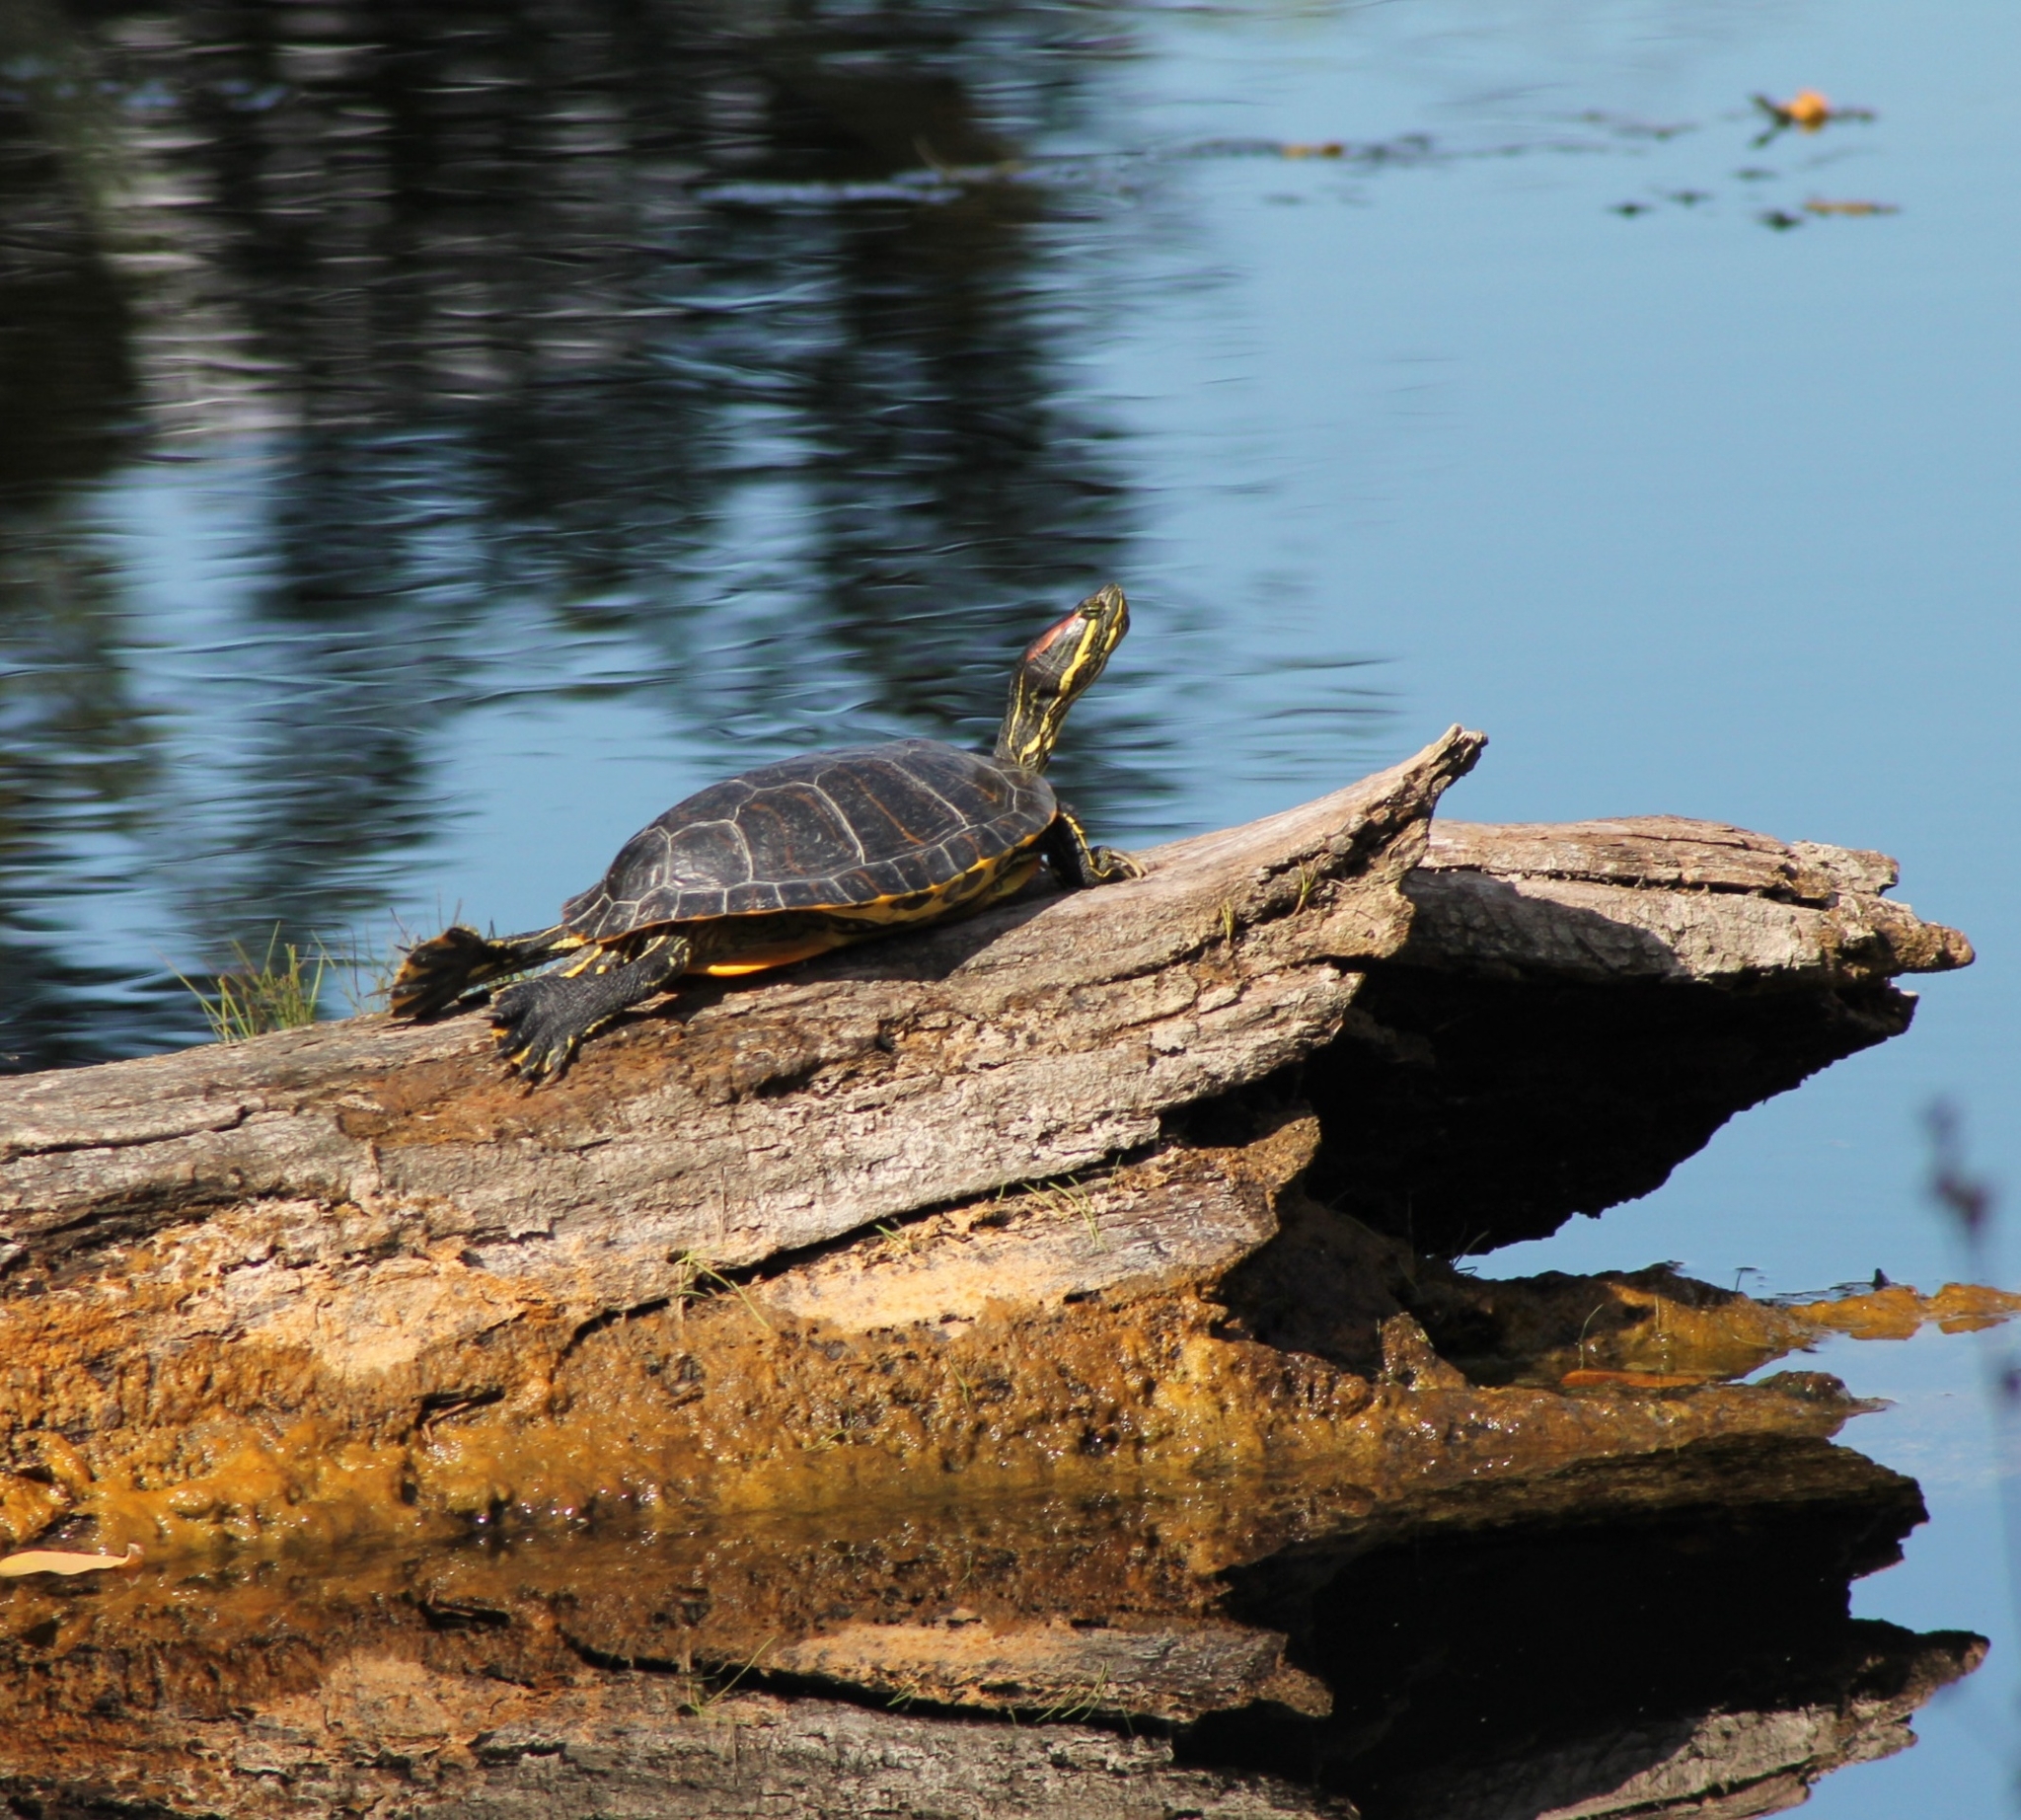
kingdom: Animalia
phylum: Chordata
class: Testudines
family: Emydidae
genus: Trachemys
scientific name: Trachemys scripta
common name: Slider
